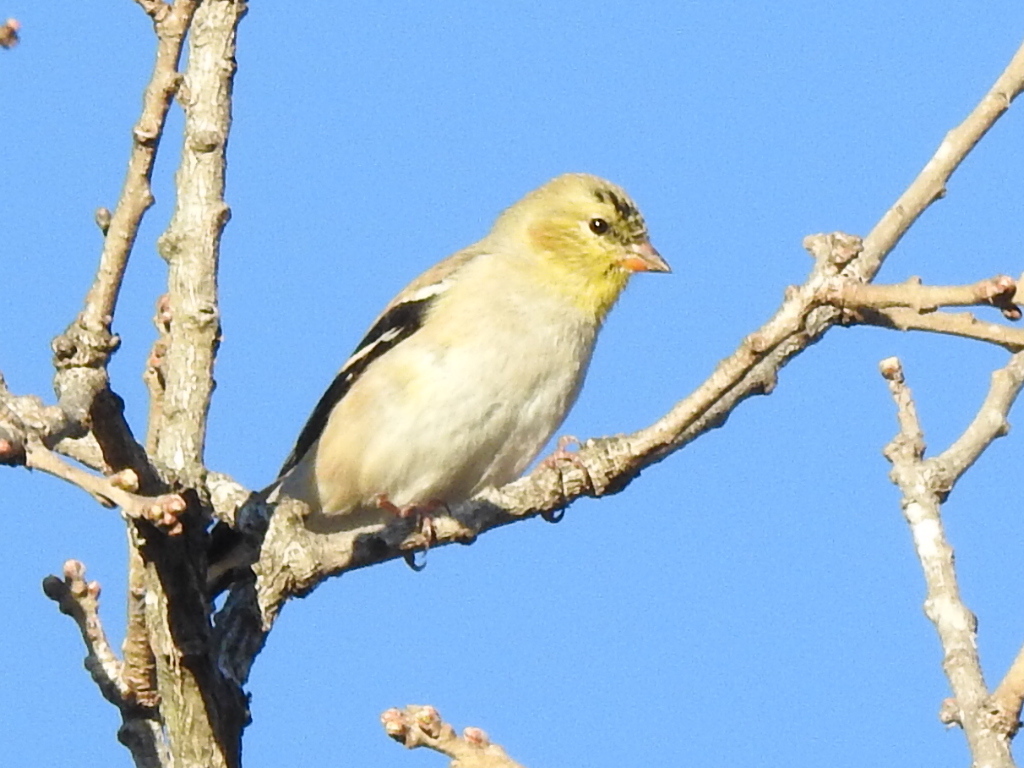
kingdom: Animalia
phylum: Chordata
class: Aves
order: Passeriformes
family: Fringillidae
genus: Spinus
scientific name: Spinus tristis
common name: American goldfinch
